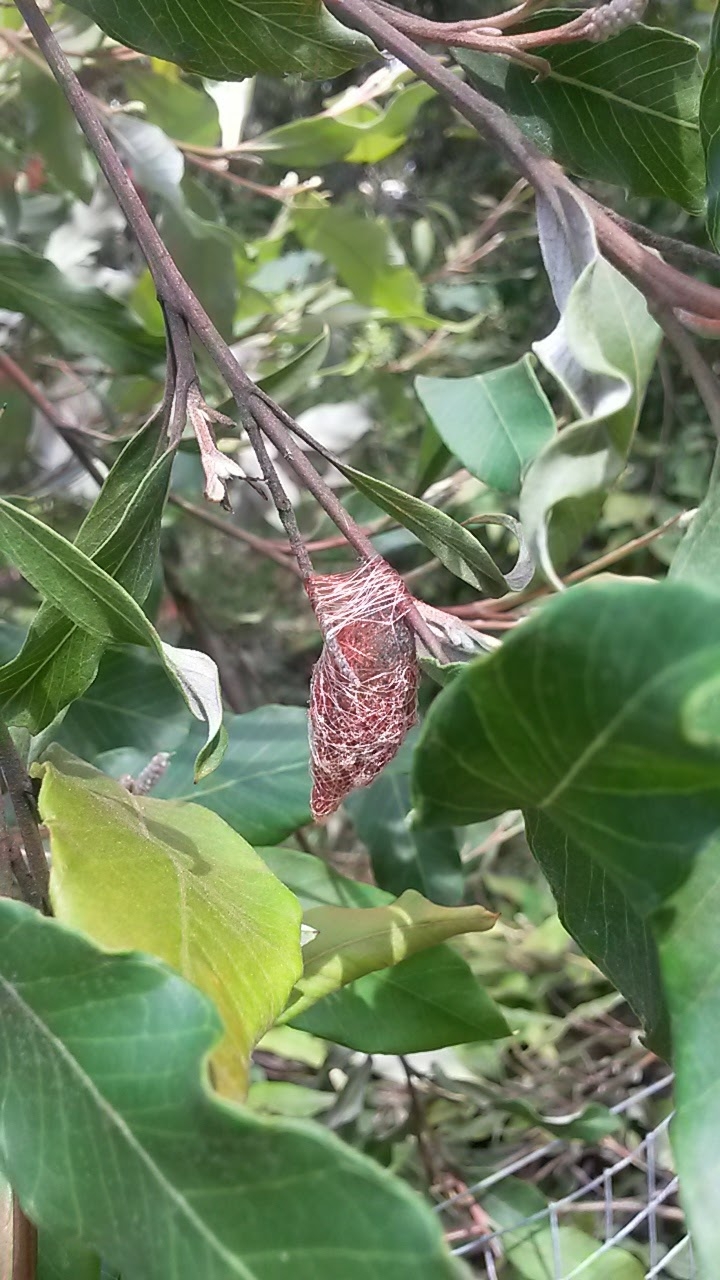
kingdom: Animalia
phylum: Arthropoda
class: Arachnida
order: Araneae
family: Araneidae
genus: Austracantha
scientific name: Austracantha minax
